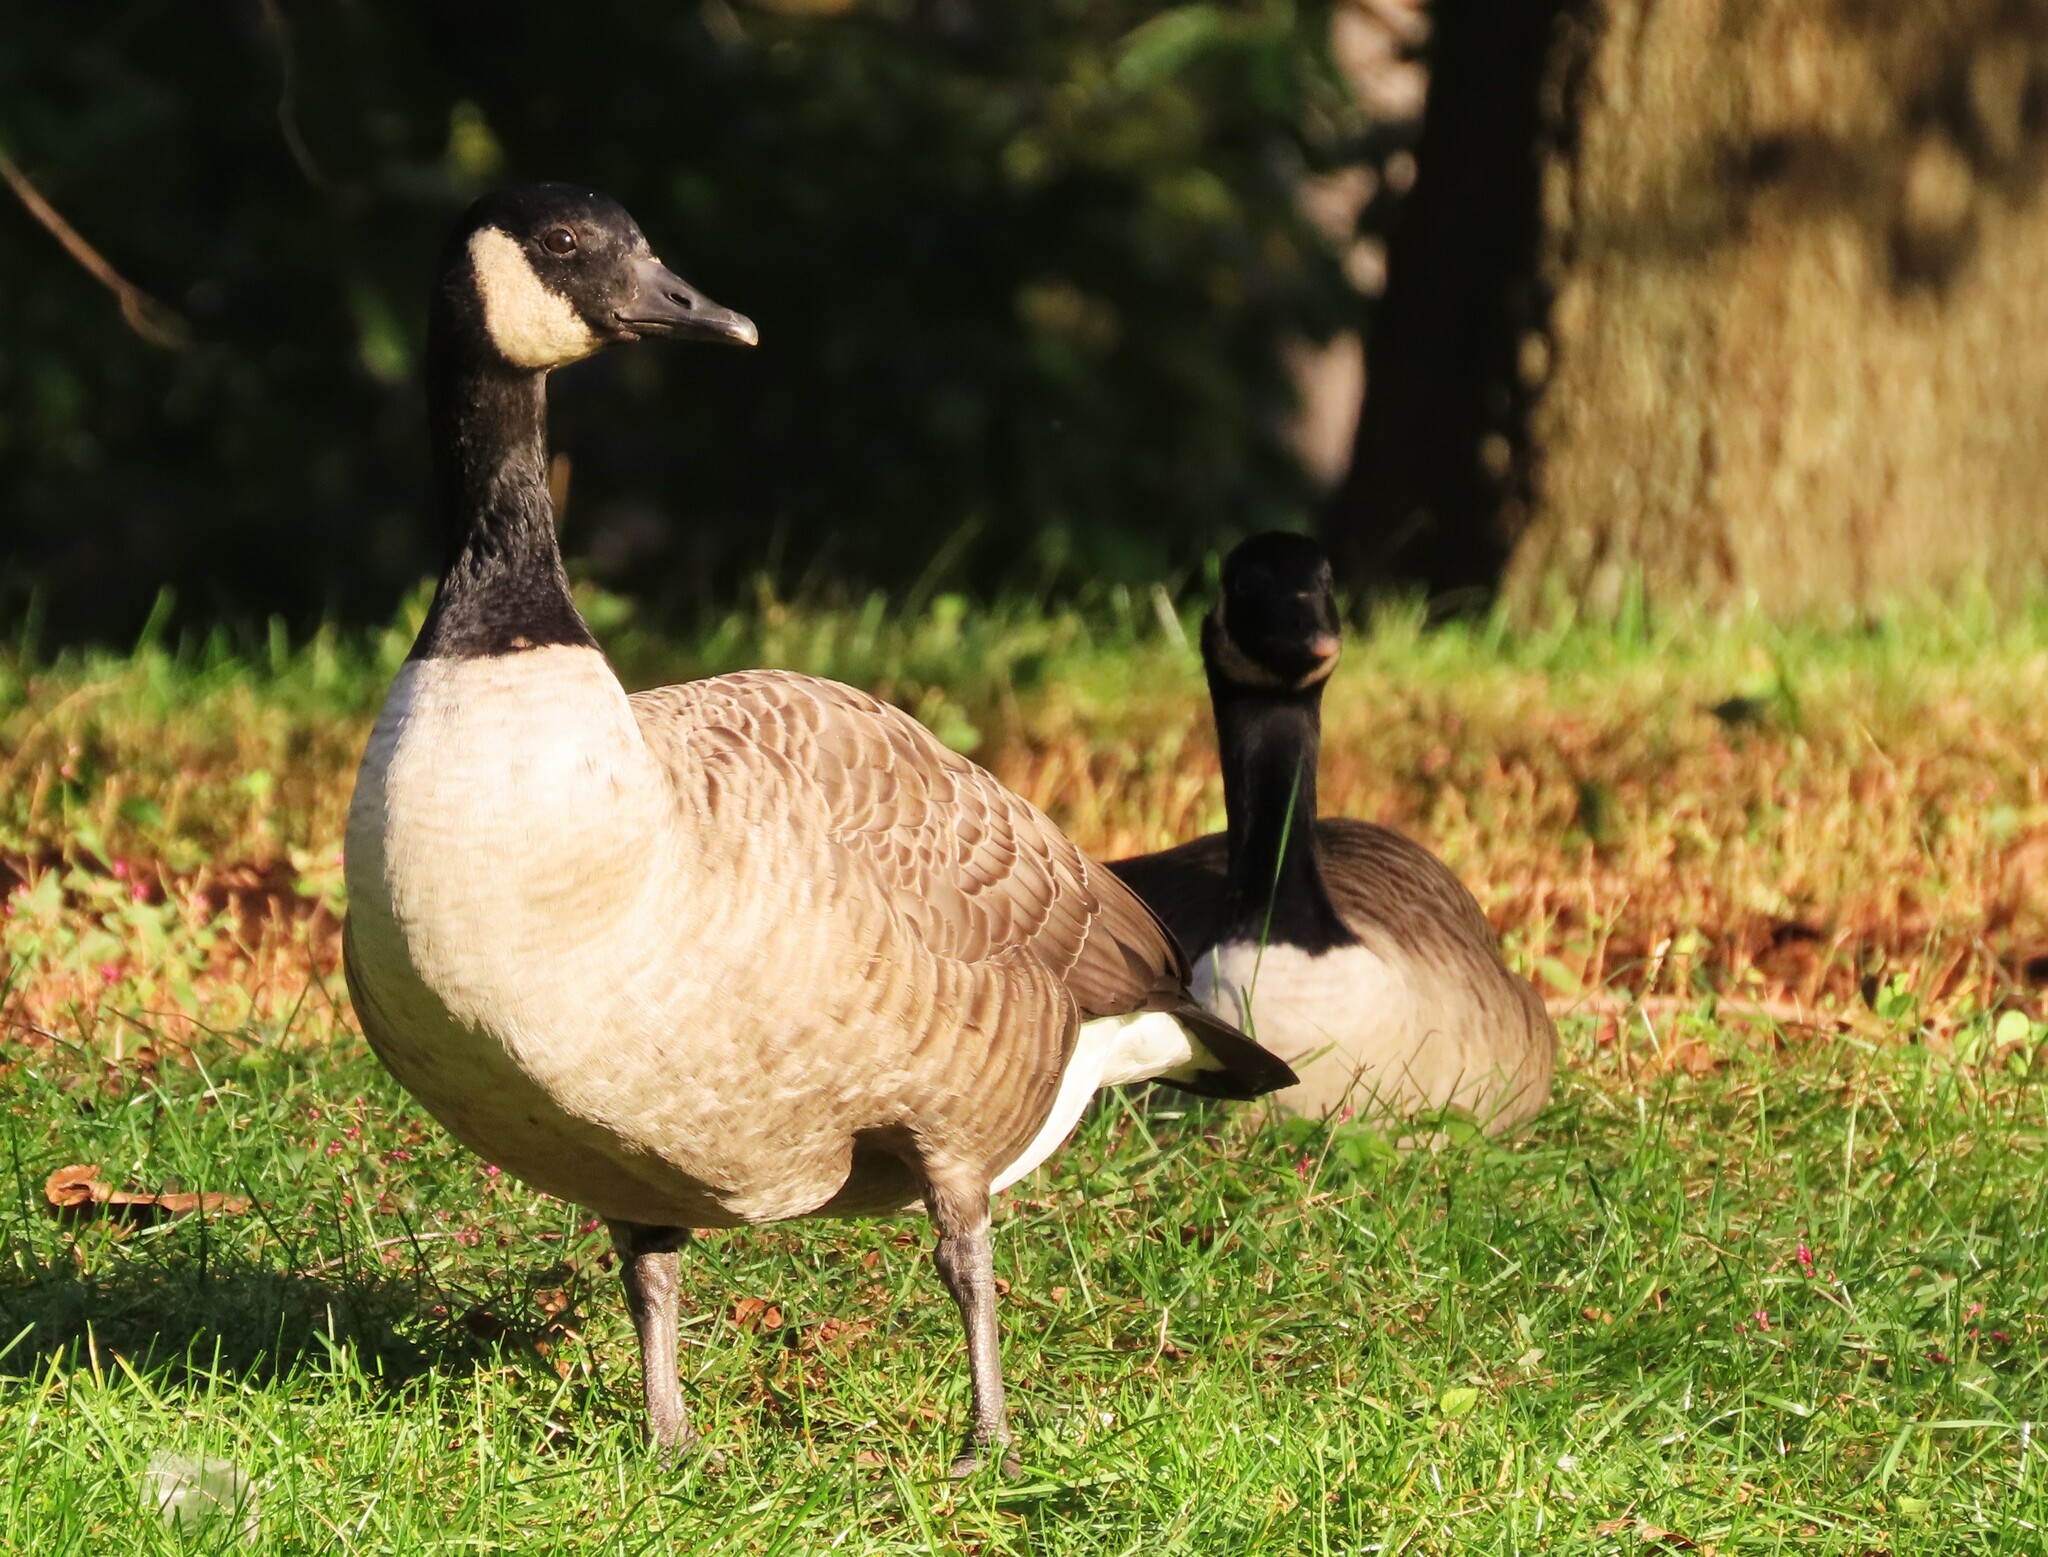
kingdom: Animalia
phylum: Chordata
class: Aves
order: Anseriformes
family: Anatidae
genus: Branta
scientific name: Branta canadensis
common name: Canada goose
